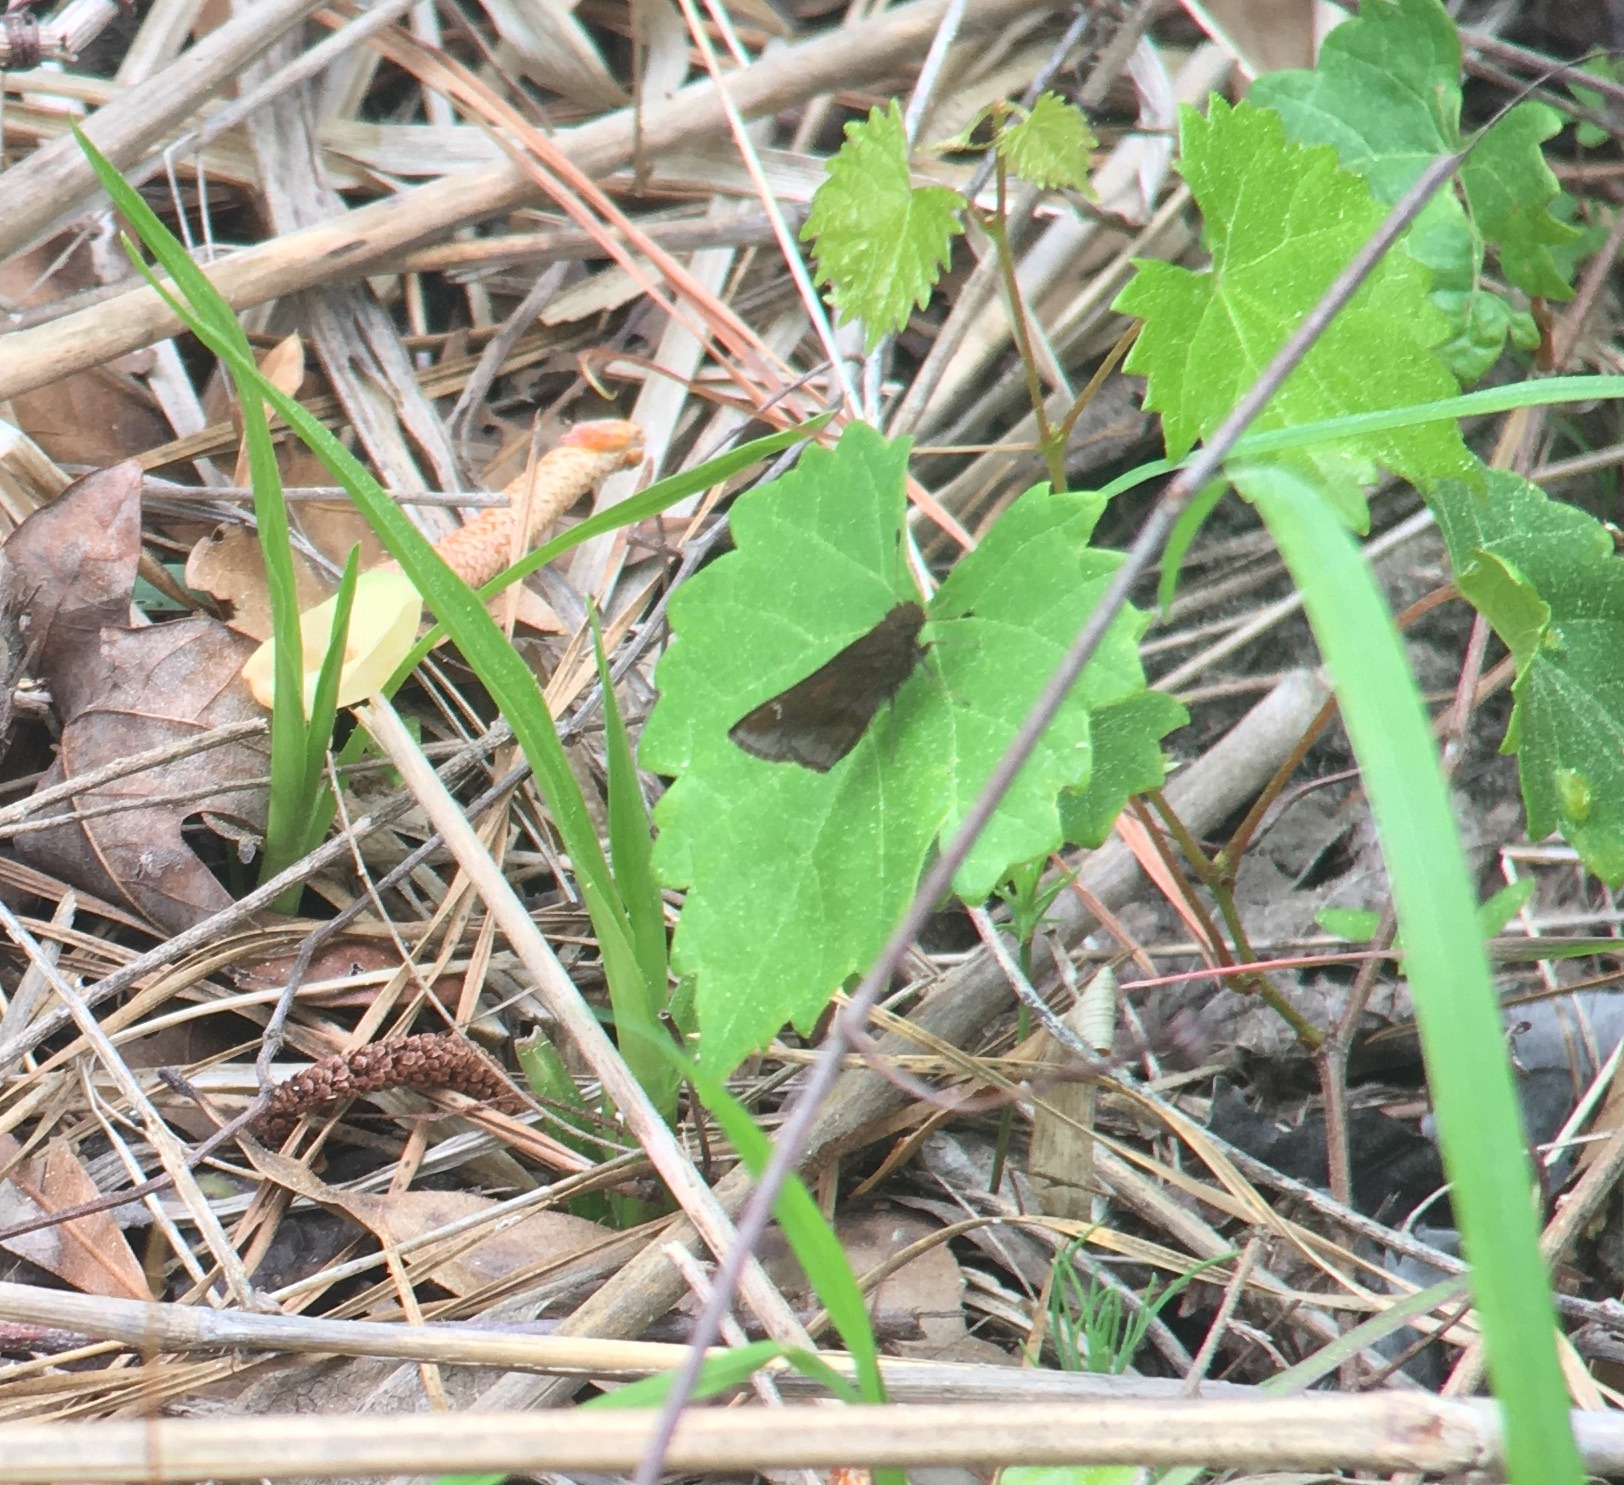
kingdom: Animalia
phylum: Arthropoda
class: Insecta
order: Lepidoptera
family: Hesperiidae
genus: Lerema
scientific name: Lerema accius
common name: Clouded skipper
